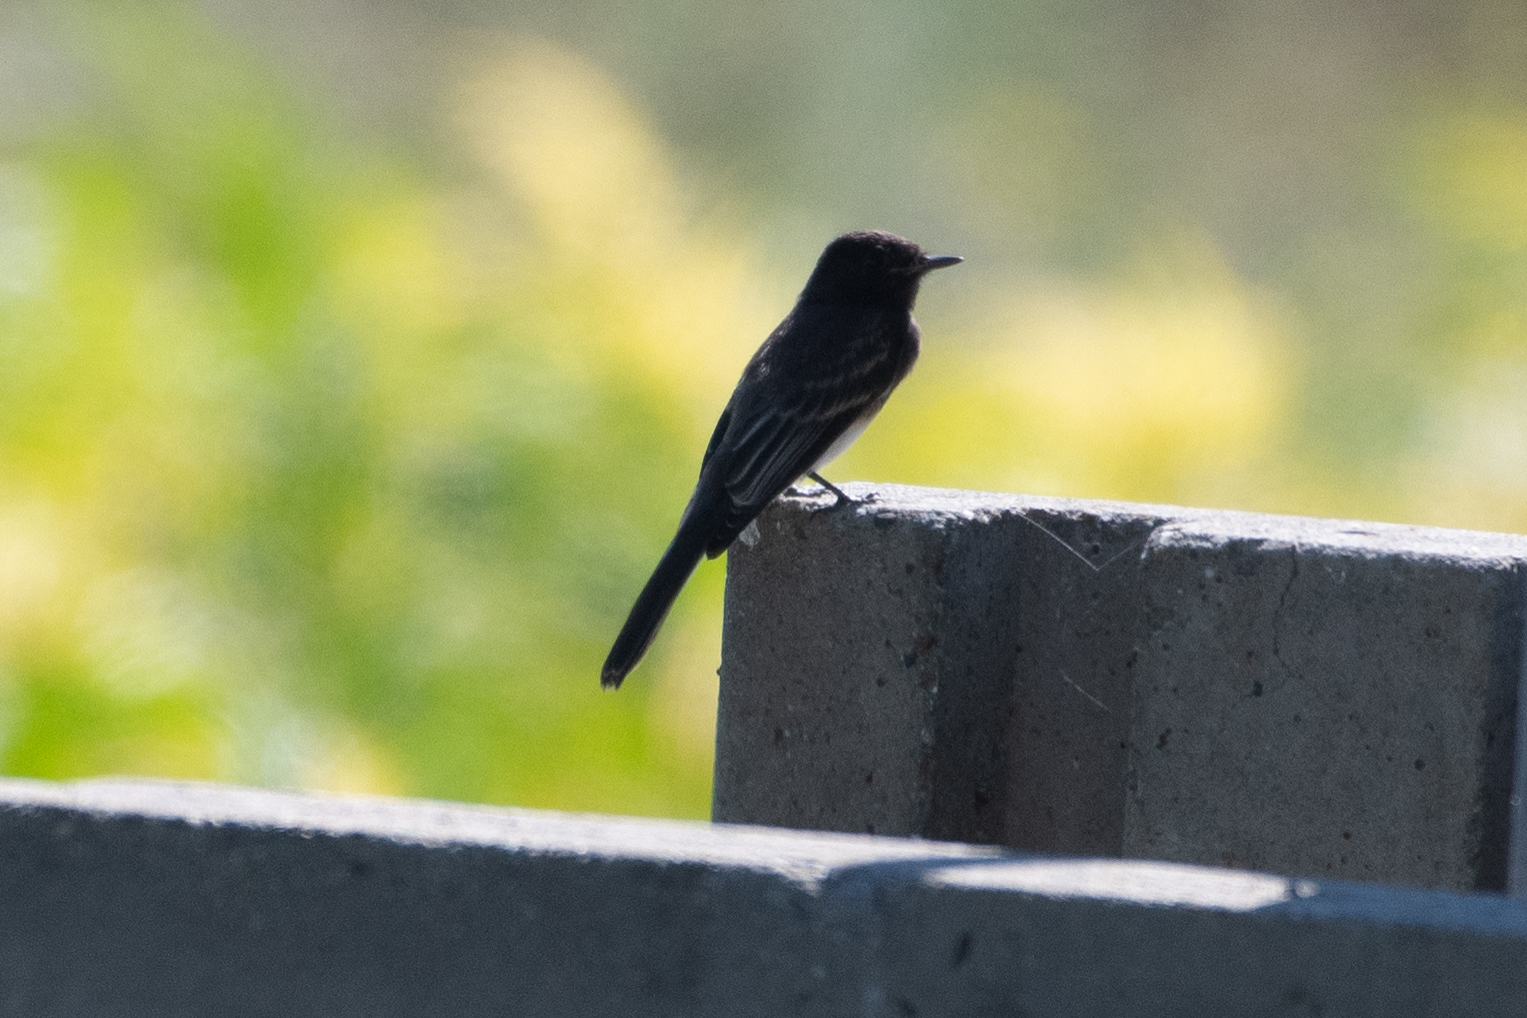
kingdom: Animalia
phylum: Chordata
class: Aves
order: Passeriformes
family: Tyrannidae
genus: Sayornis
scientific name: Sayornis nigricans
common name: Black phoebe
